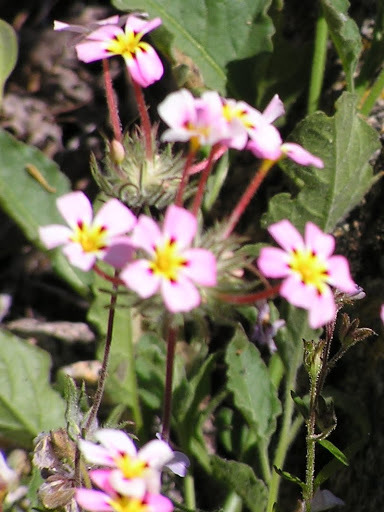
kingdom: Plantae
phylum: Tracheophyta
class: Magnoliopsida
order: Ericales
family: Polemoniaceae
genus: Leptosiphon
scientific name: Leptosiphon ciliatus
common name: Whiskerbrush
